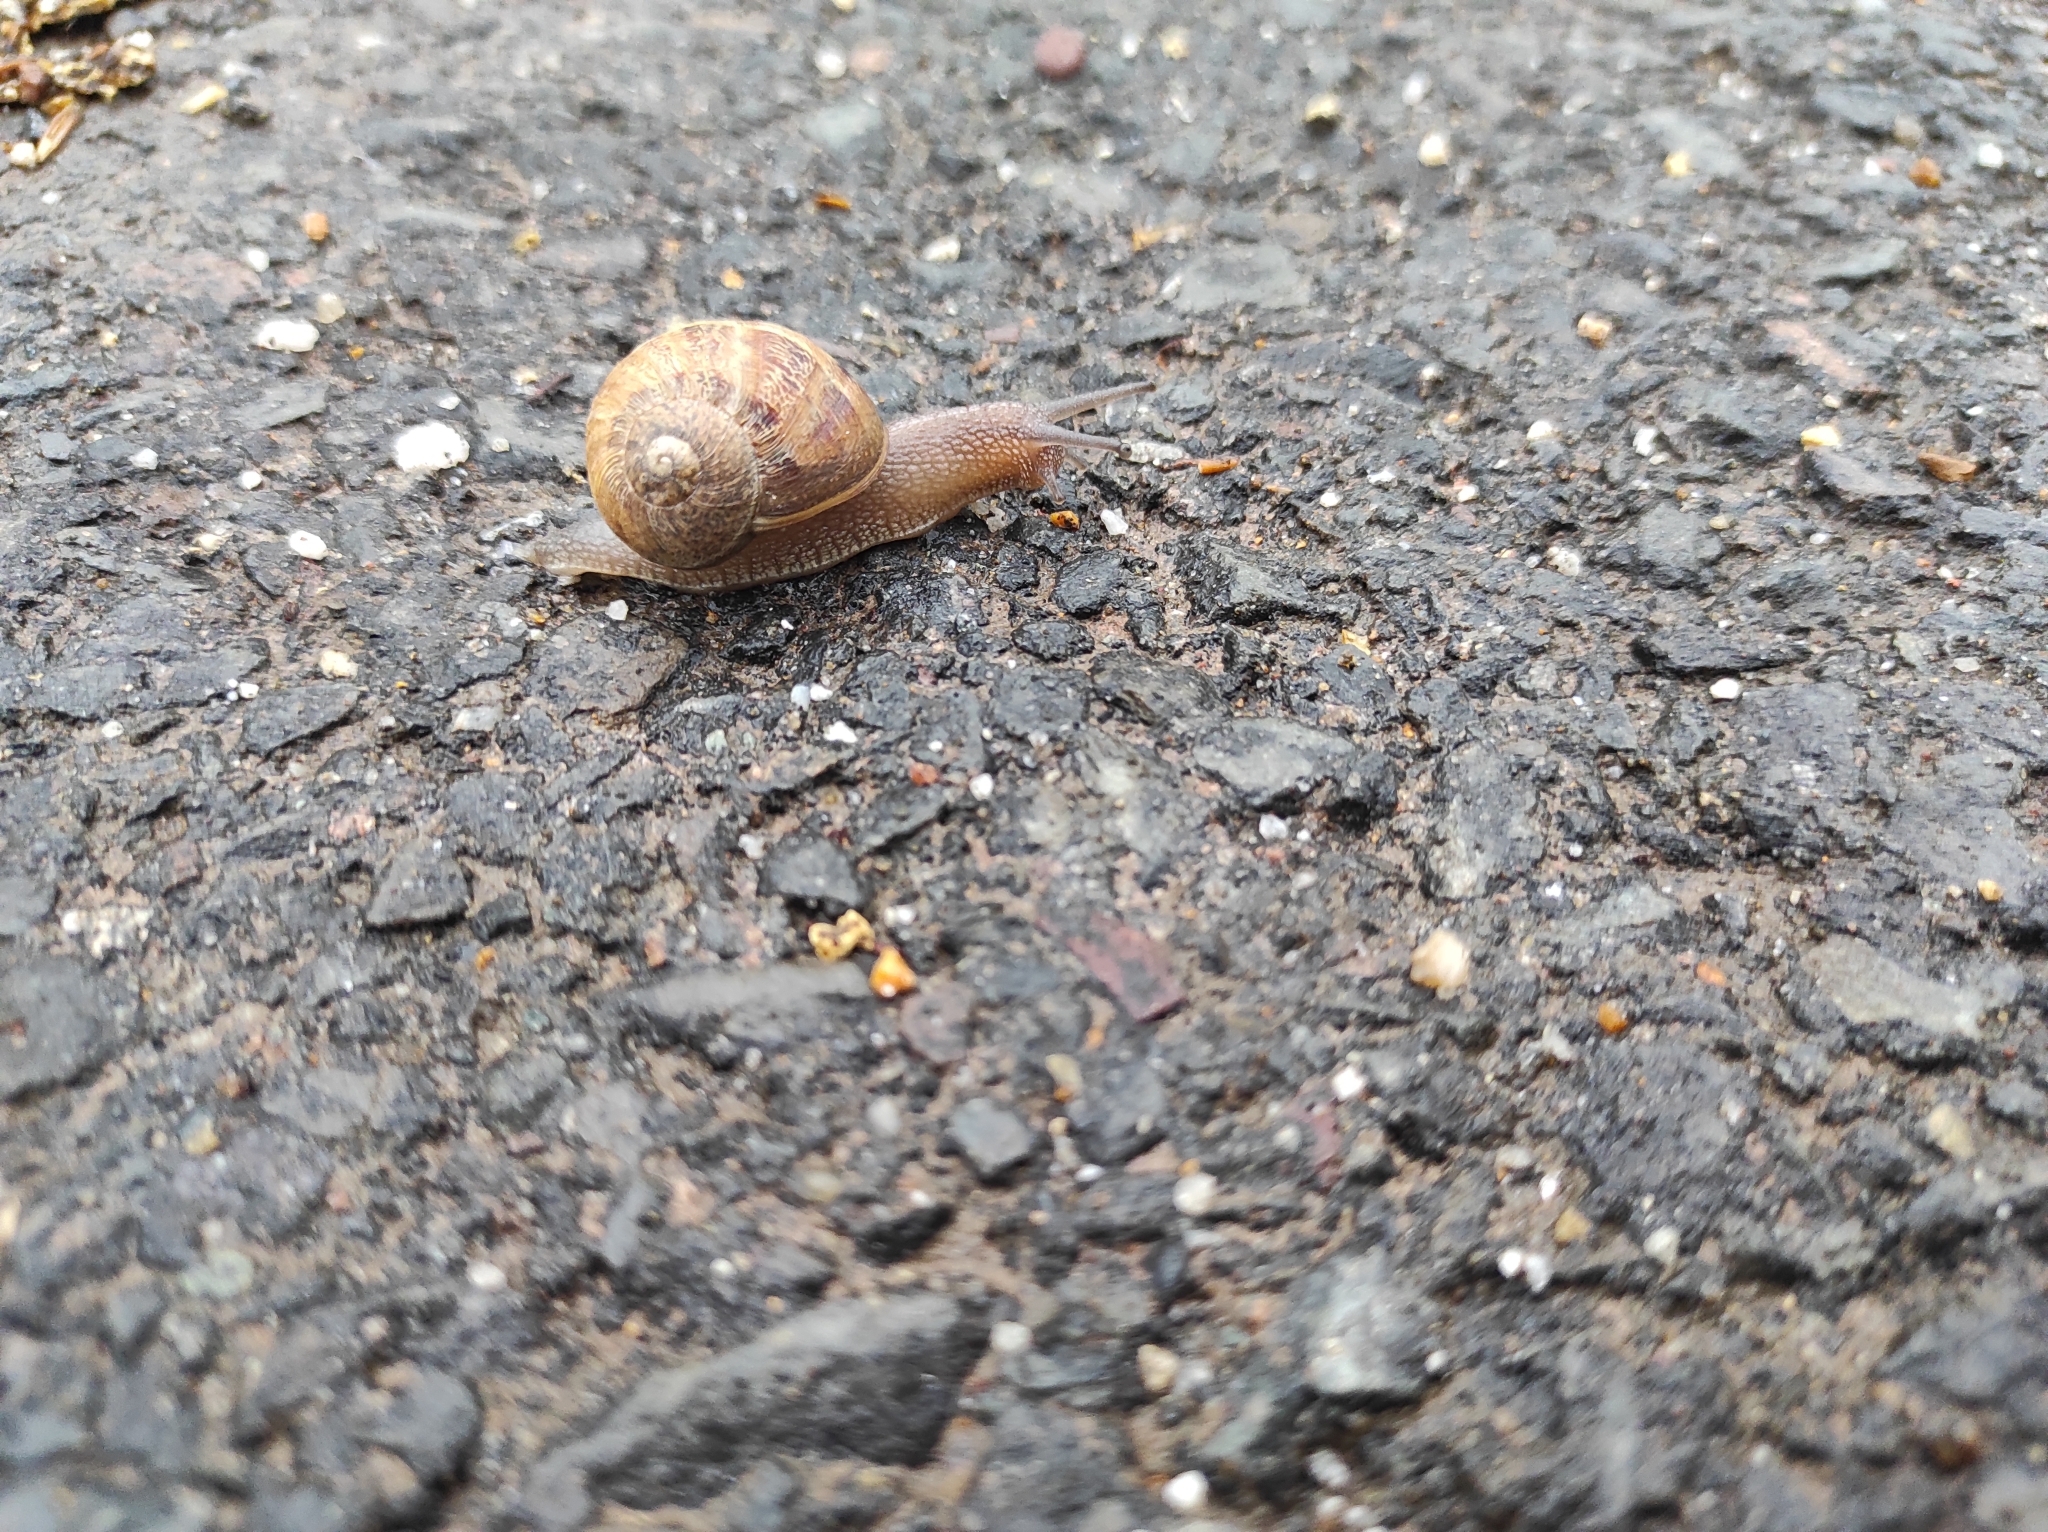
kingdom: Animalia
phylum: Mollusca
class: Gastropoda
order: Stylommatophora
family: Helicidae
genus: Cornu
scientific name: Cornu aspersum
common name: Brown garden snail
